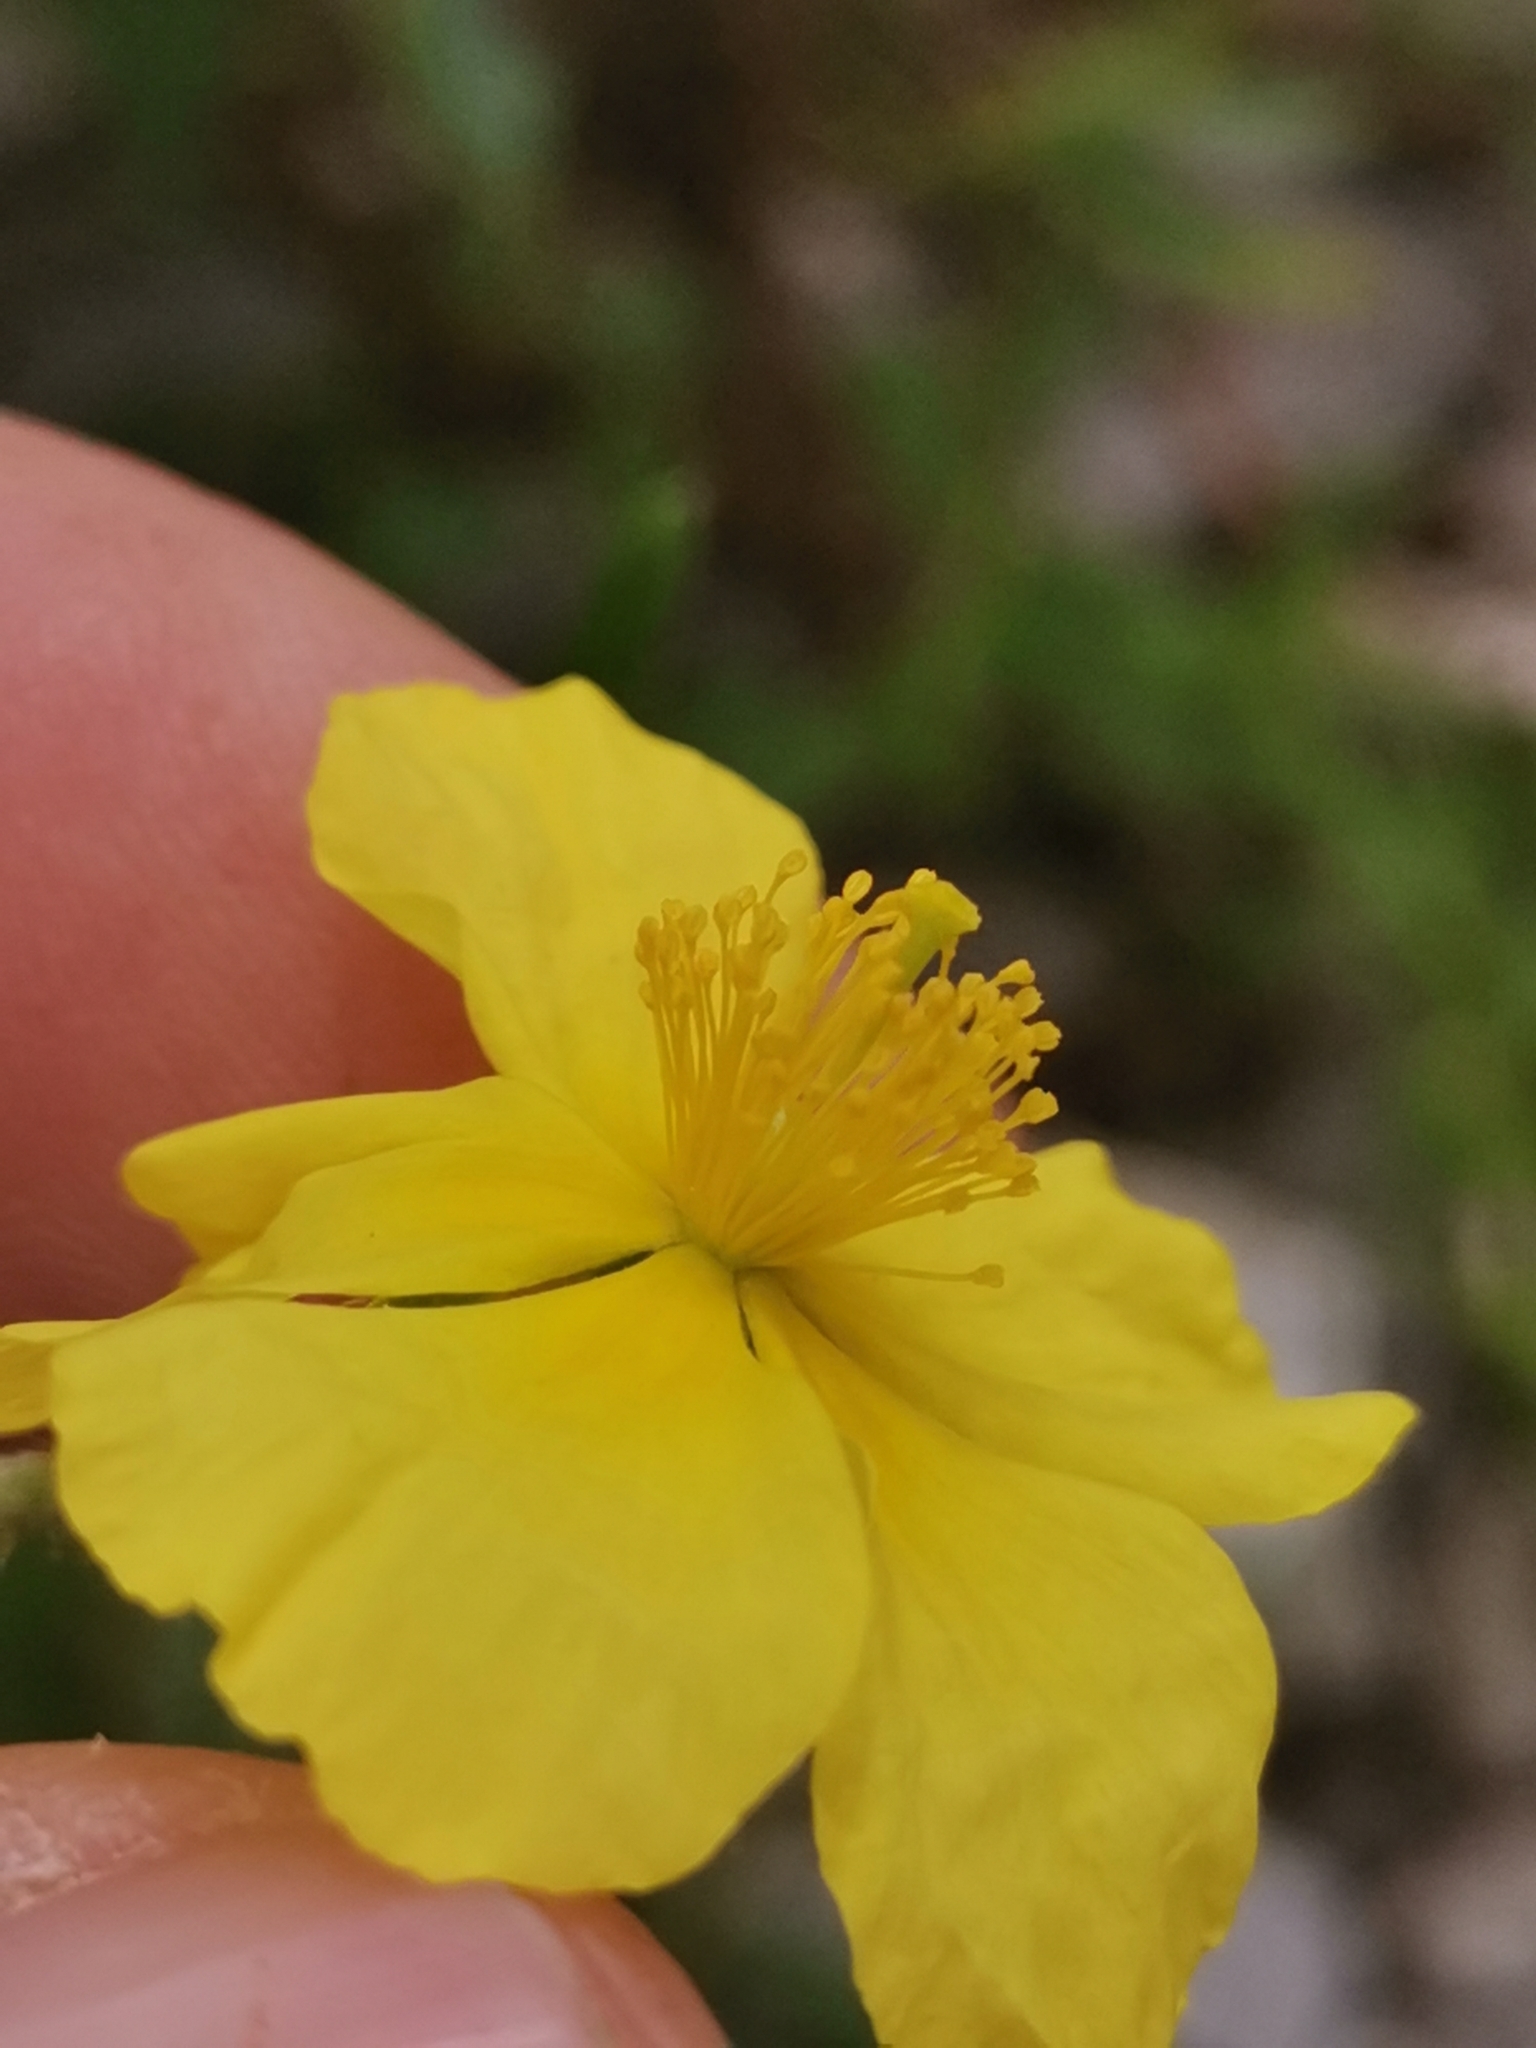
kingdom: Plantae
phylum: Tracheophyta
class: Magnoliopsida
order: Malvales
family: Cistaceae
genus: Helianthemum
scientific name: Helianthemum nummularium
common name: Common rock-rose
